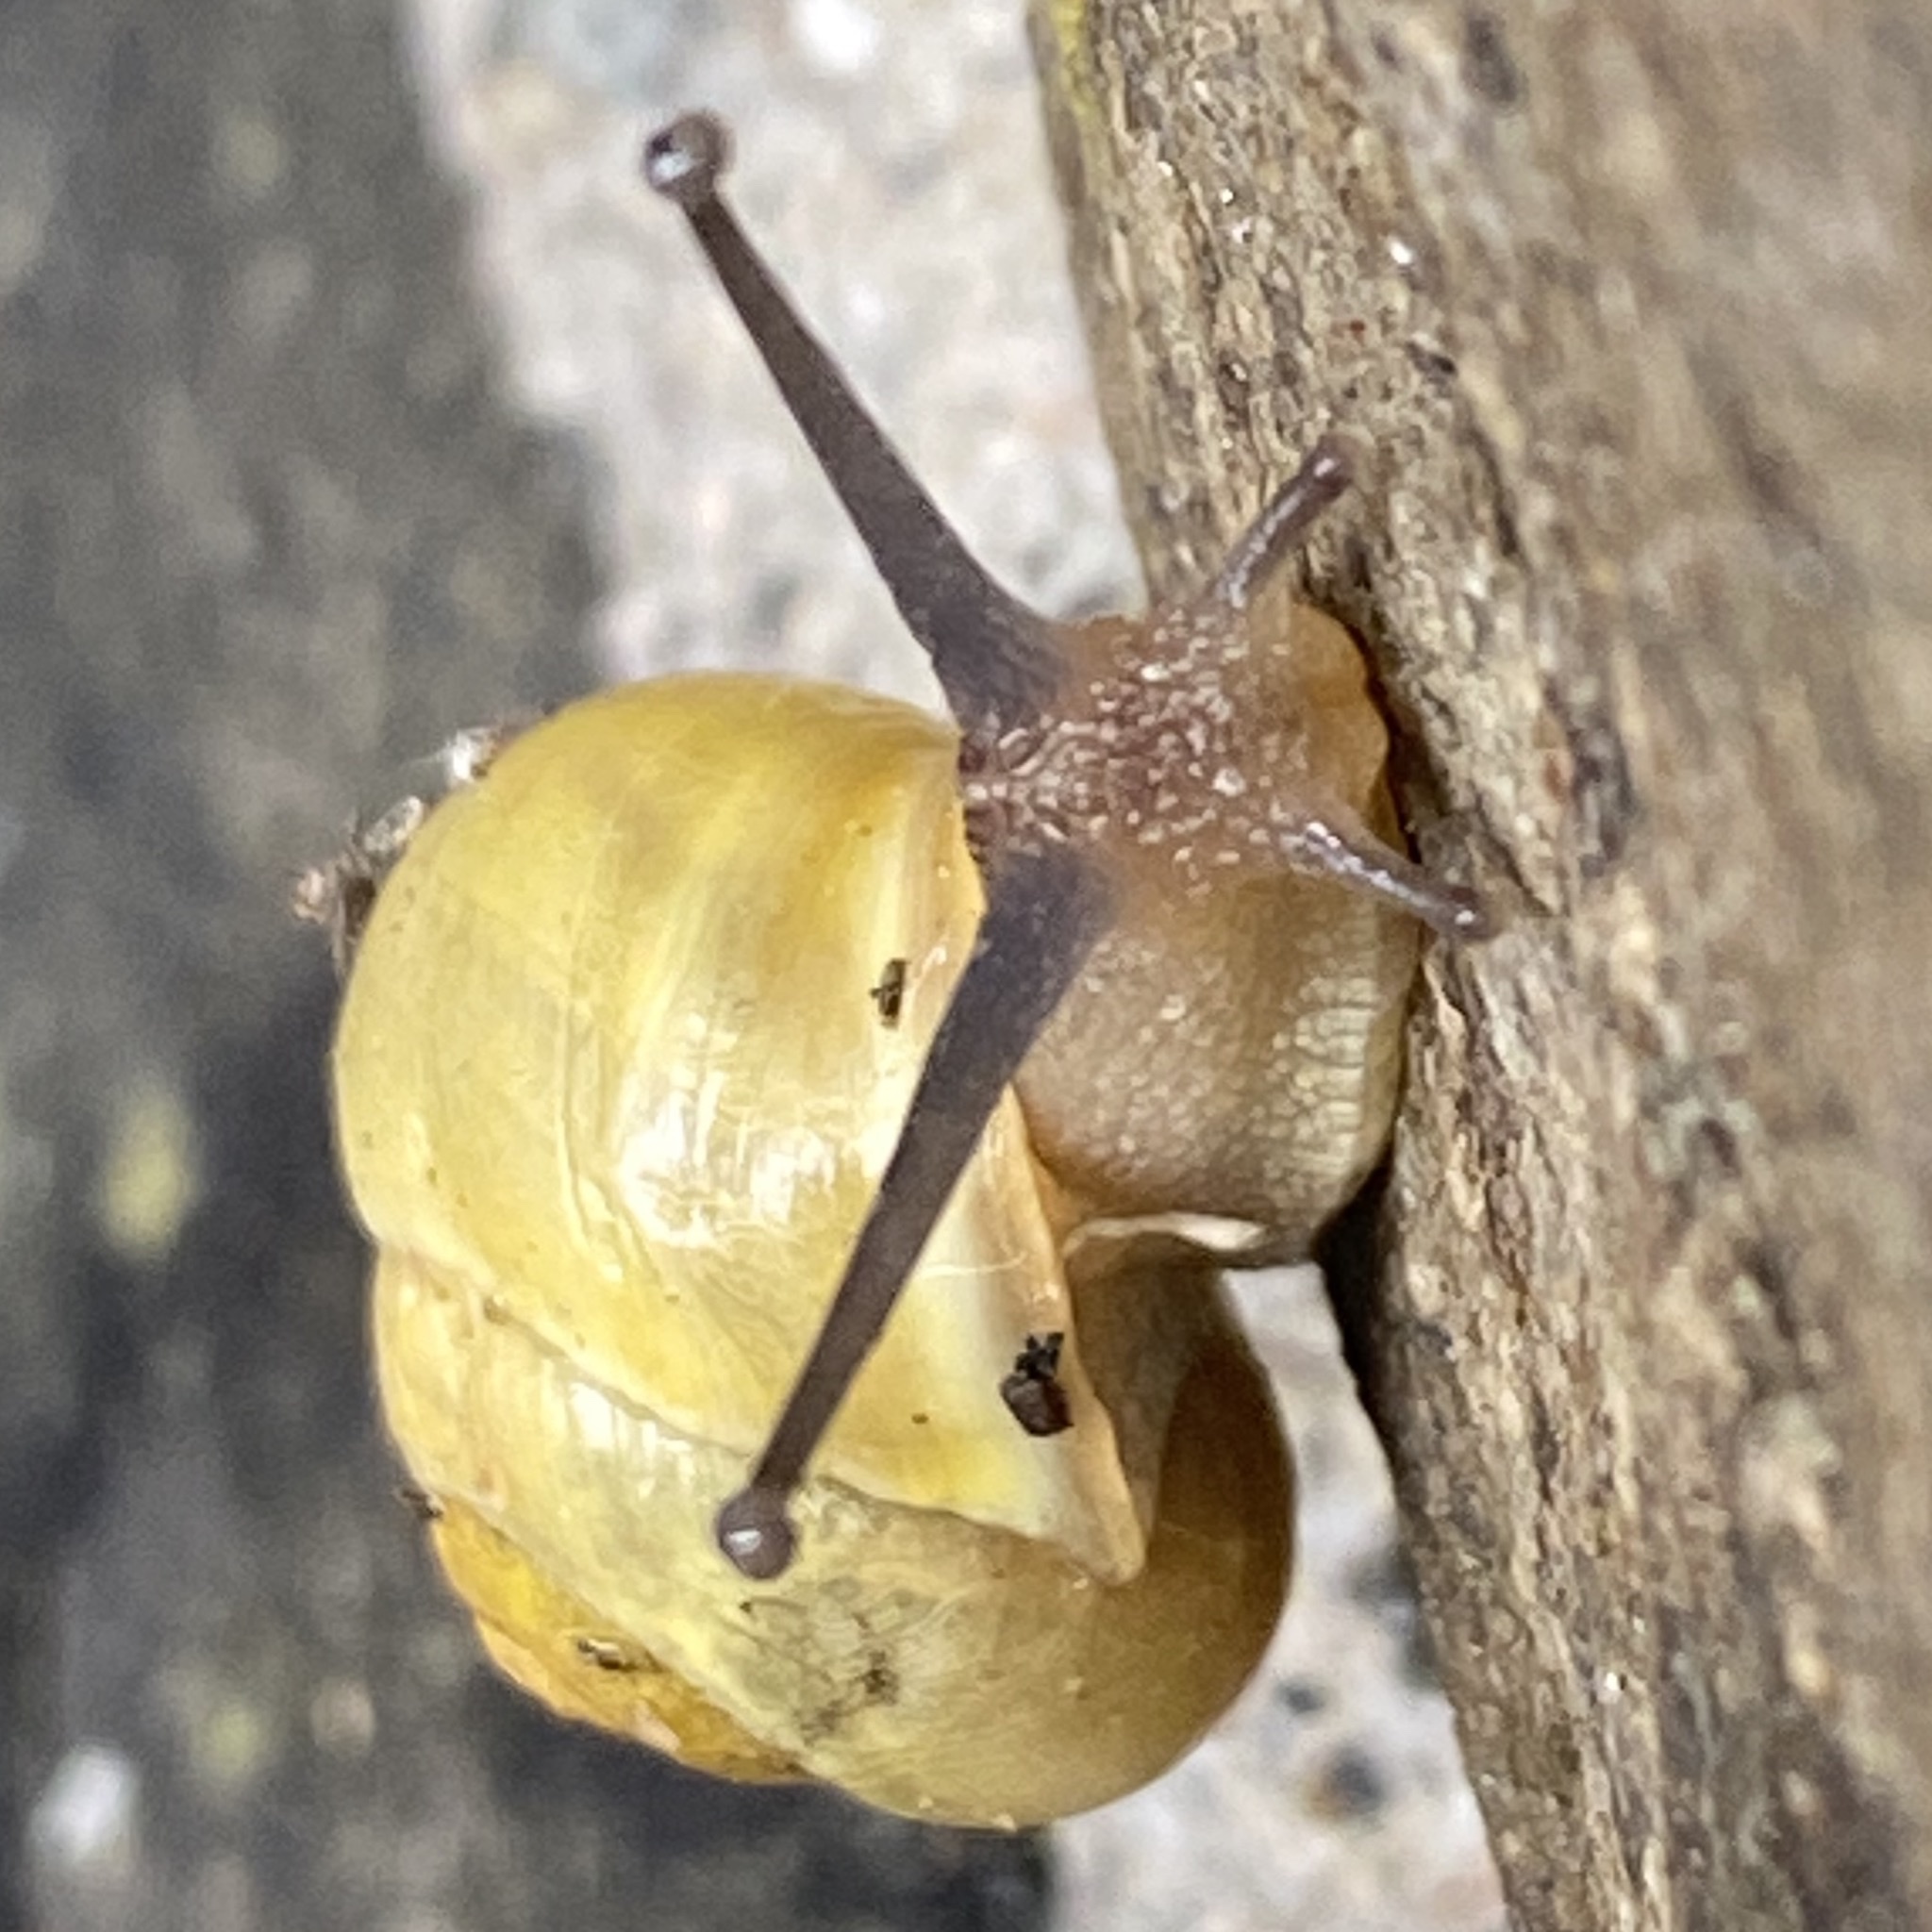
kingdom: Animalia
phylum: Mollusca
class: Gastropoda
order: Stylommatophora
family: Helicidae
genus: Cepaea
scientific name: Cepaea hortensis
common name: White-lip gardensnail
